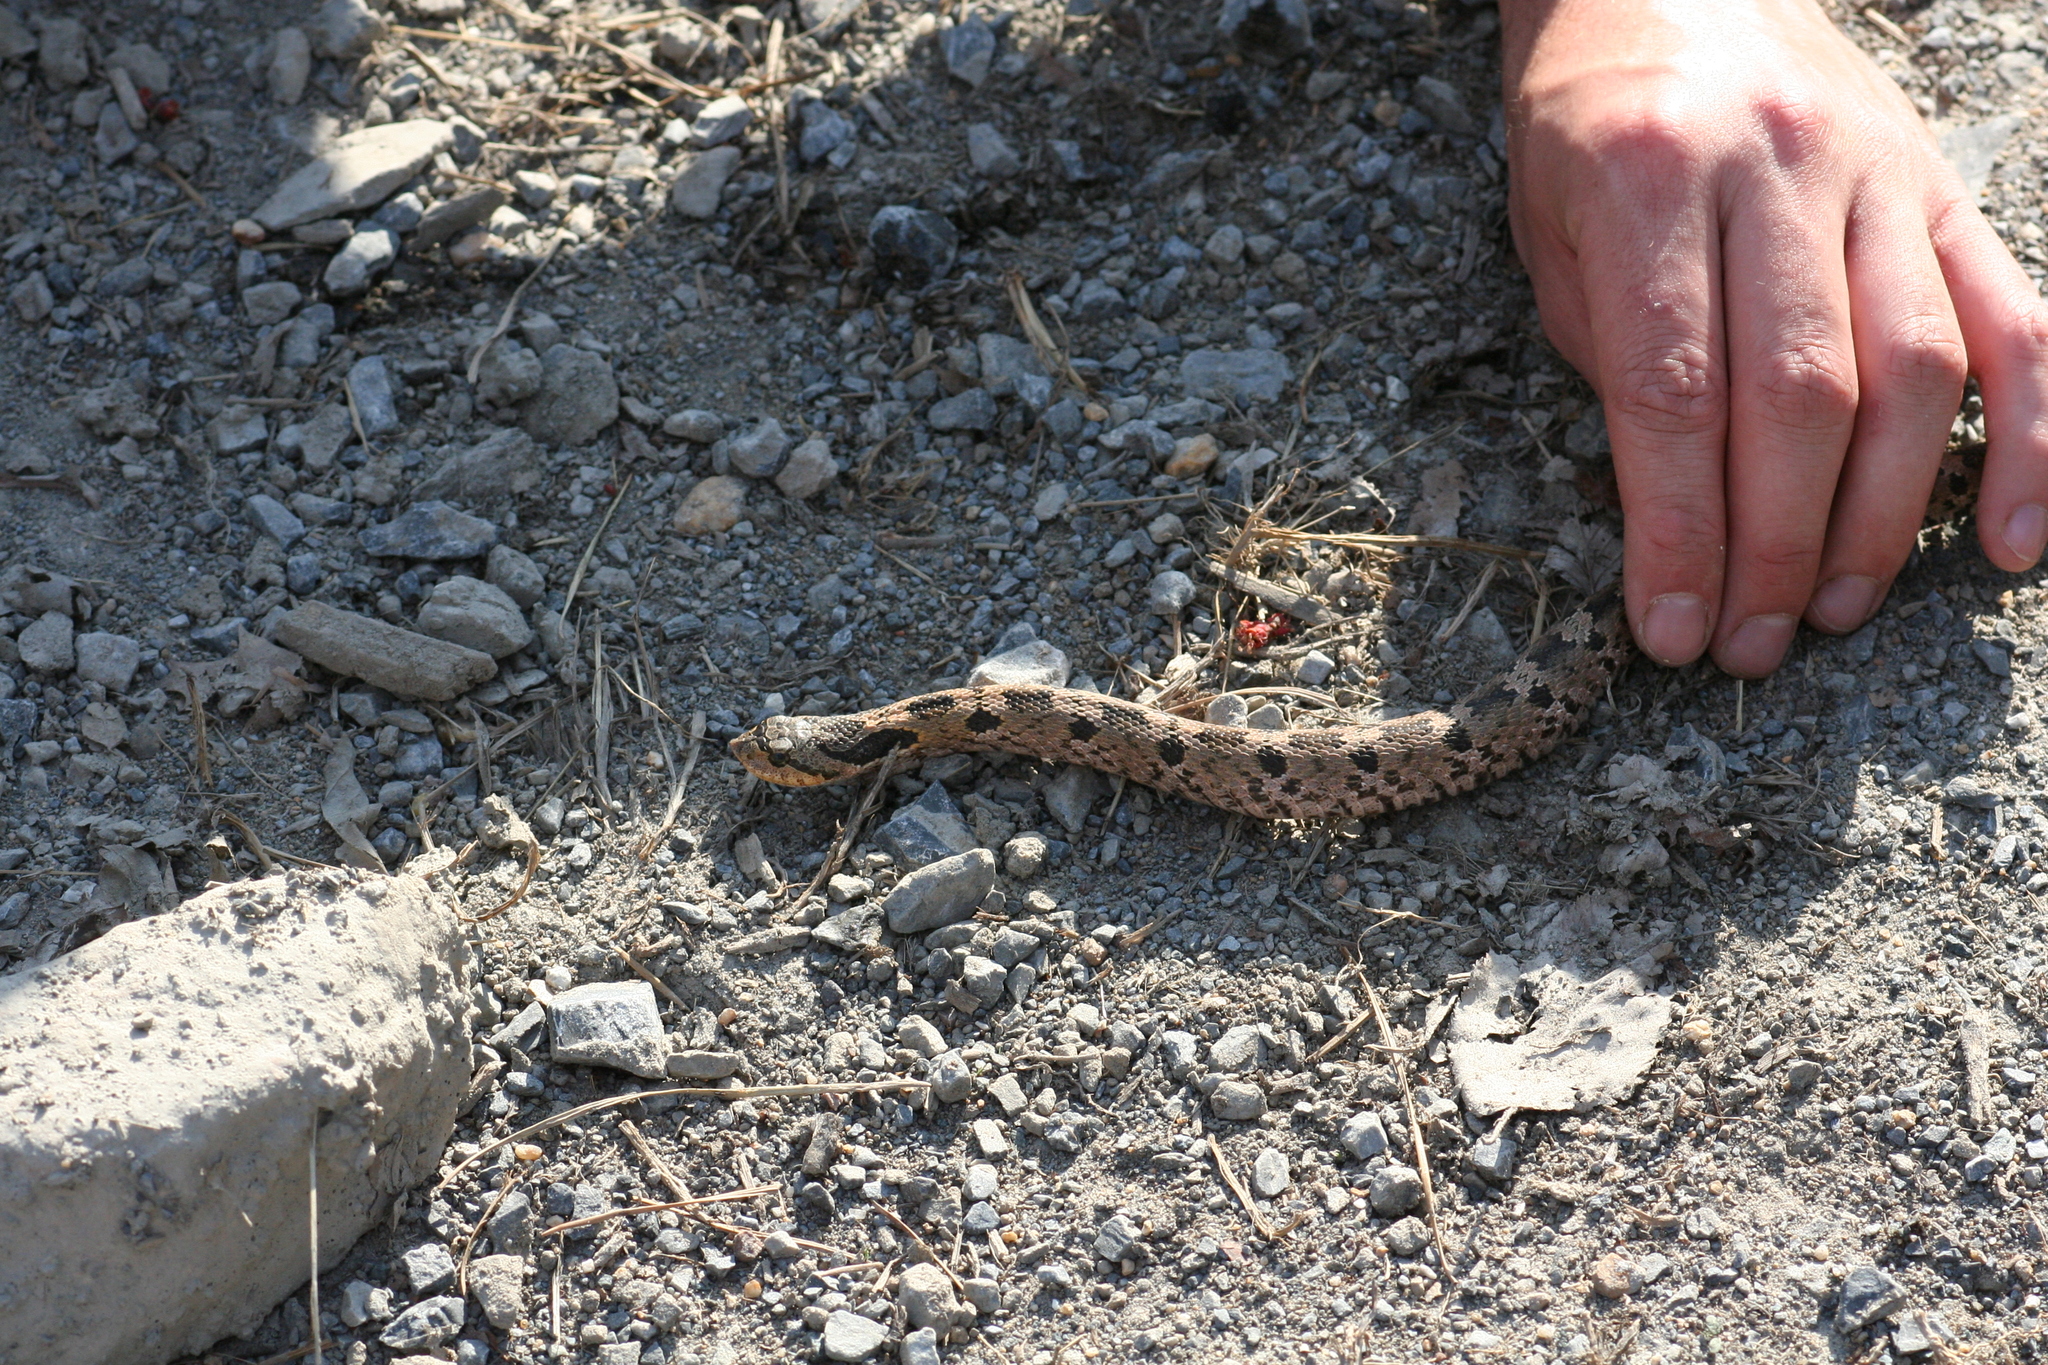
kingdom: Animalia
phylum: Chordata
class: Squamata
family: Colubridae
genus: Heterodon
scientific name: Heterodon platirhinos
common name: Eastern hognose snake
